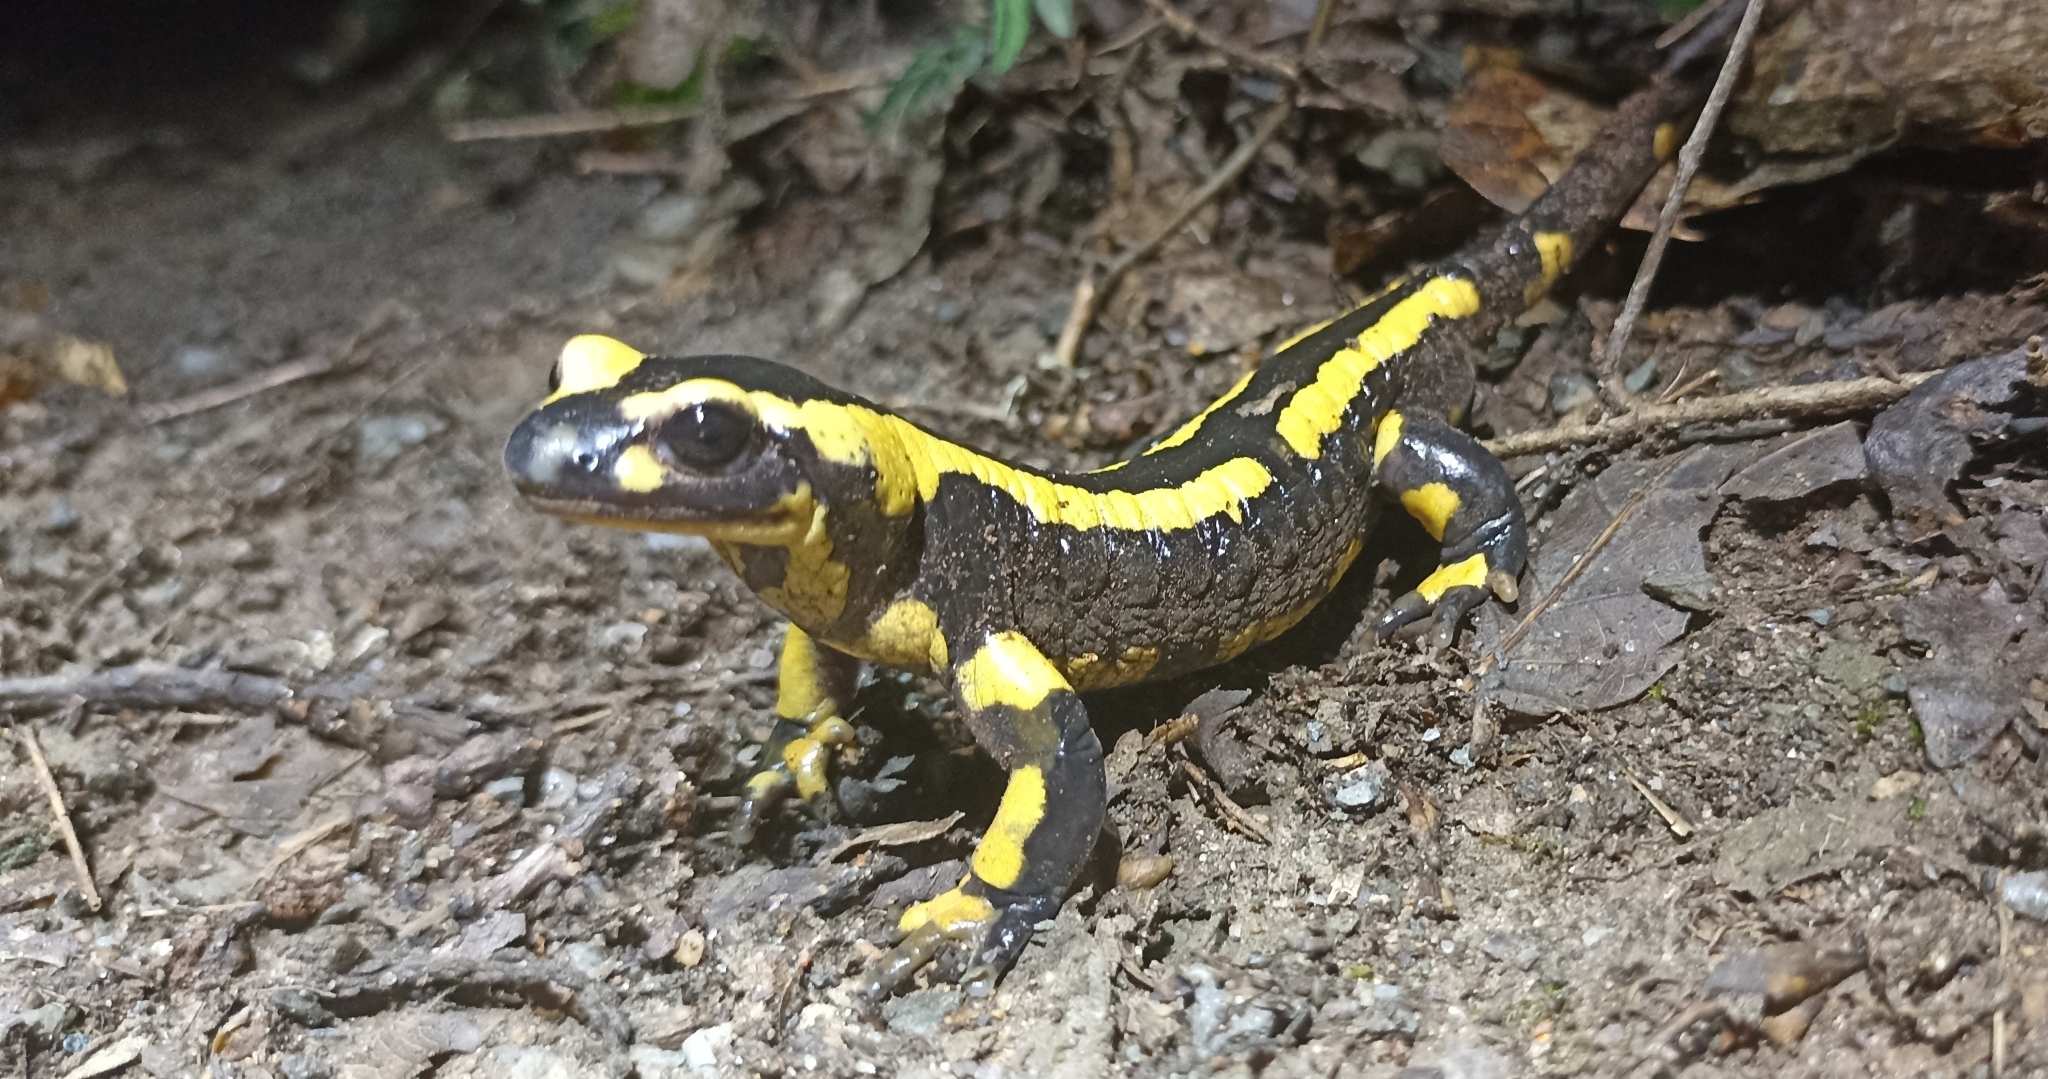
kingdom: Animalia
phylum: Chordata
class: Amphibia
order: Caudata
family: Salamandridae
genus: Salamandra
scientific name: Salamandra salamandra
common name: Fire salamander
